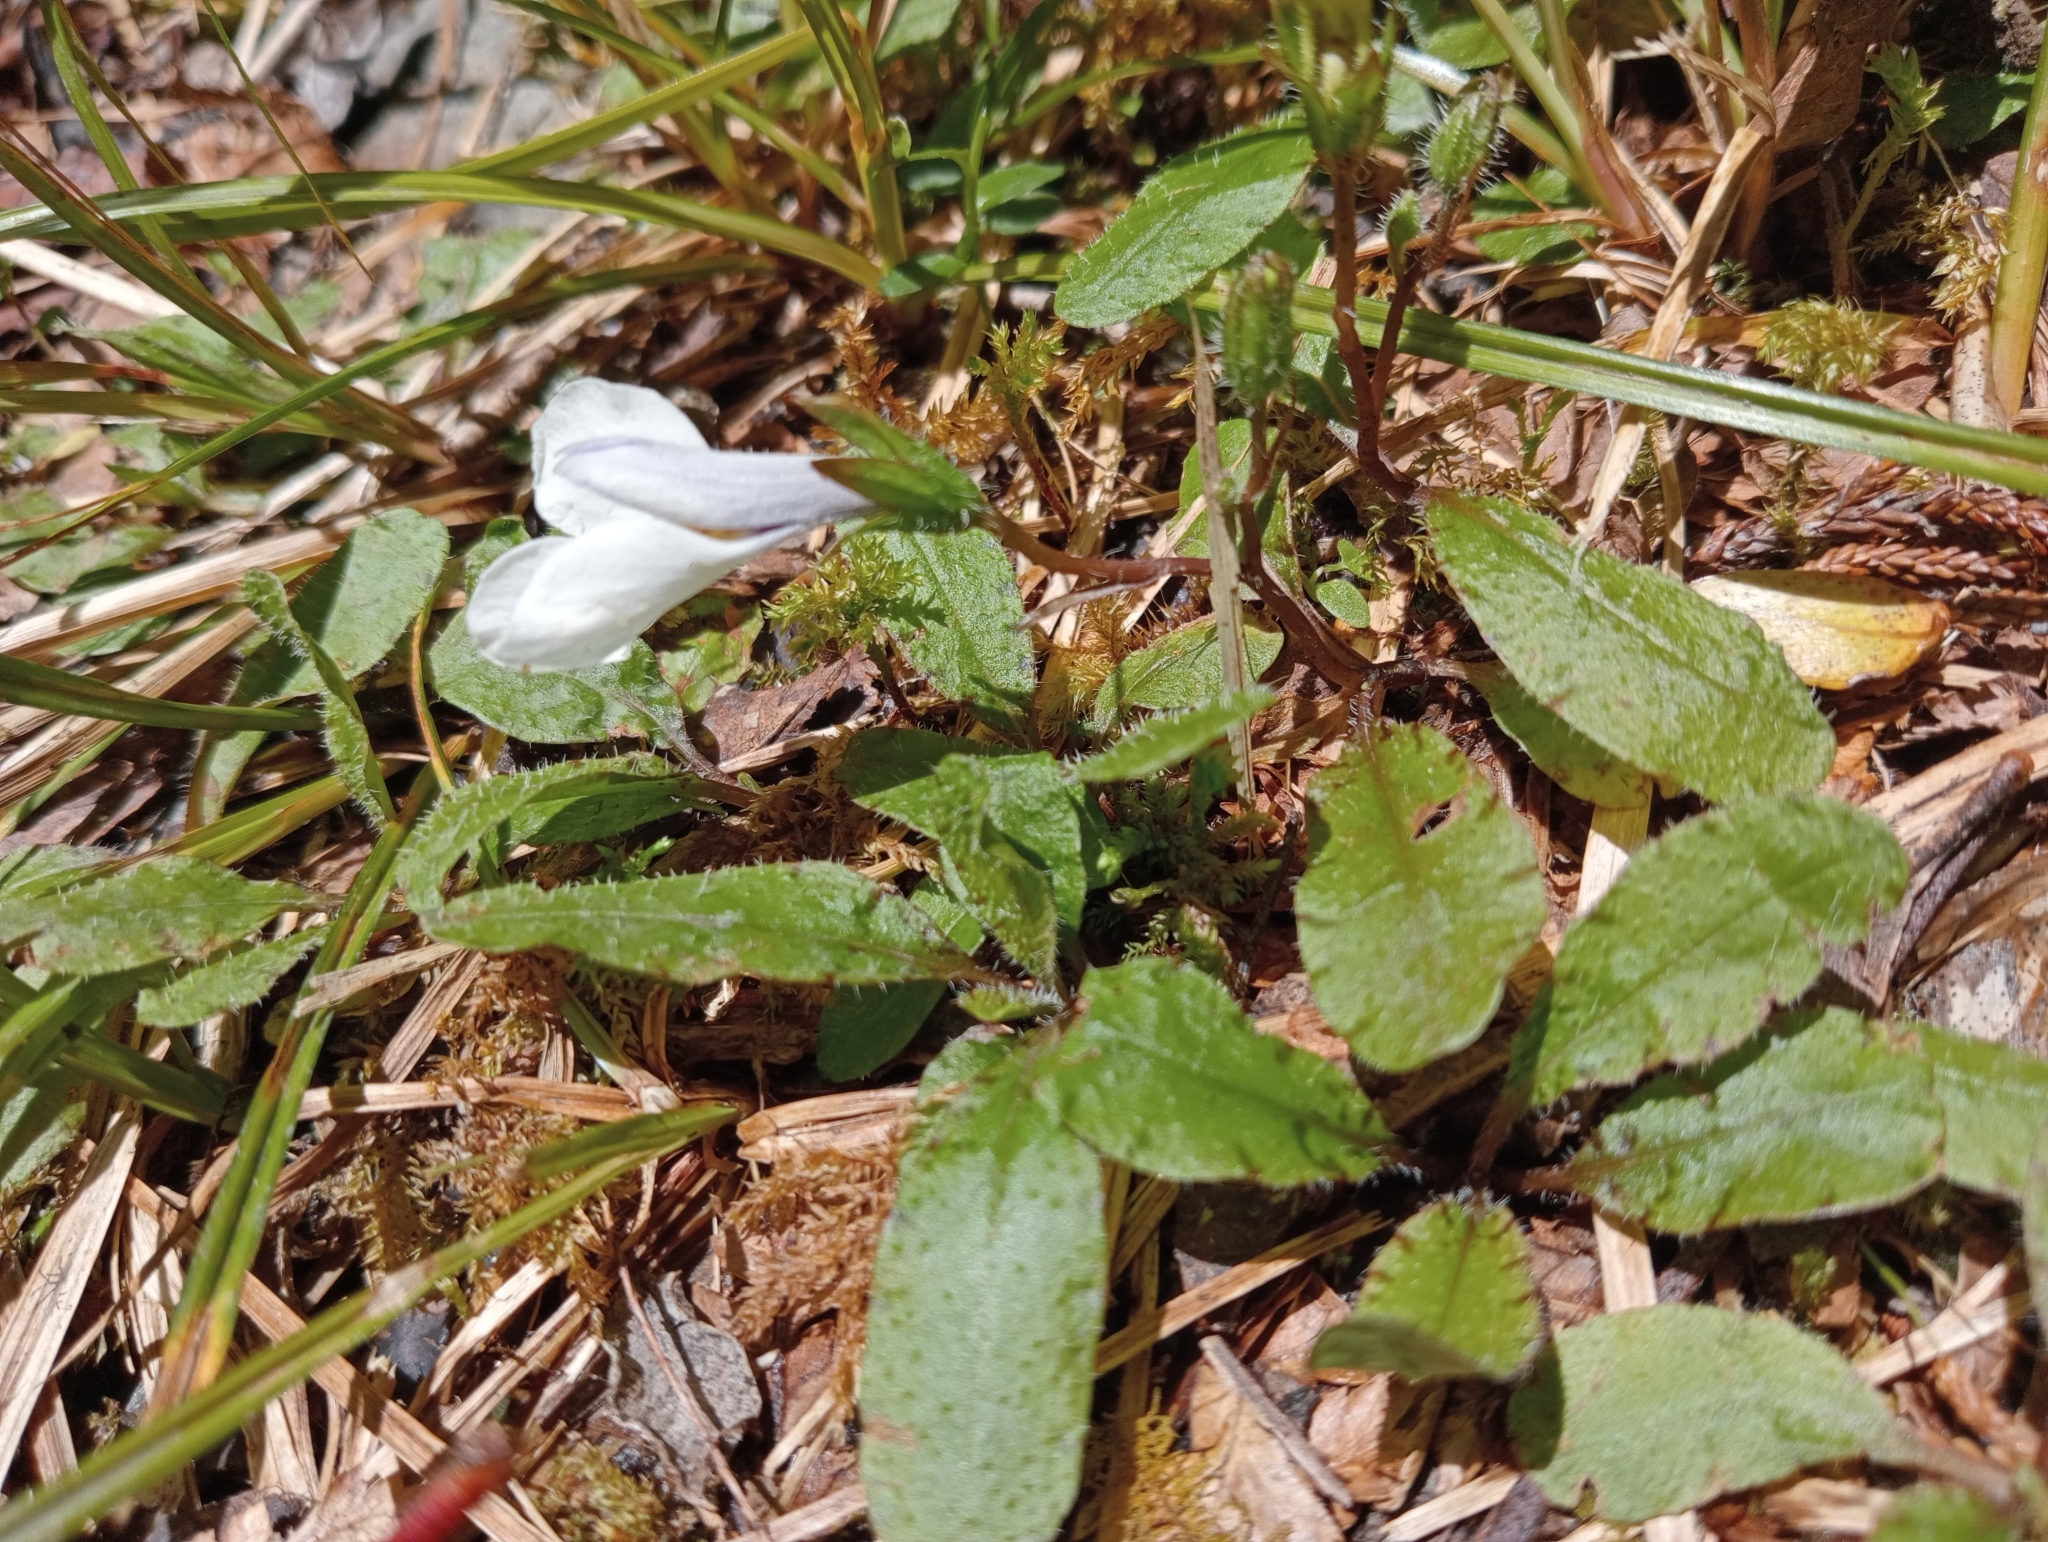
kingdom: Plantae
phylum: Tracheophyta
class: Magnoliopsida
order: Lamiales
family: Mazaceae
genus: Mazus
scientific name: Mazus radicans
